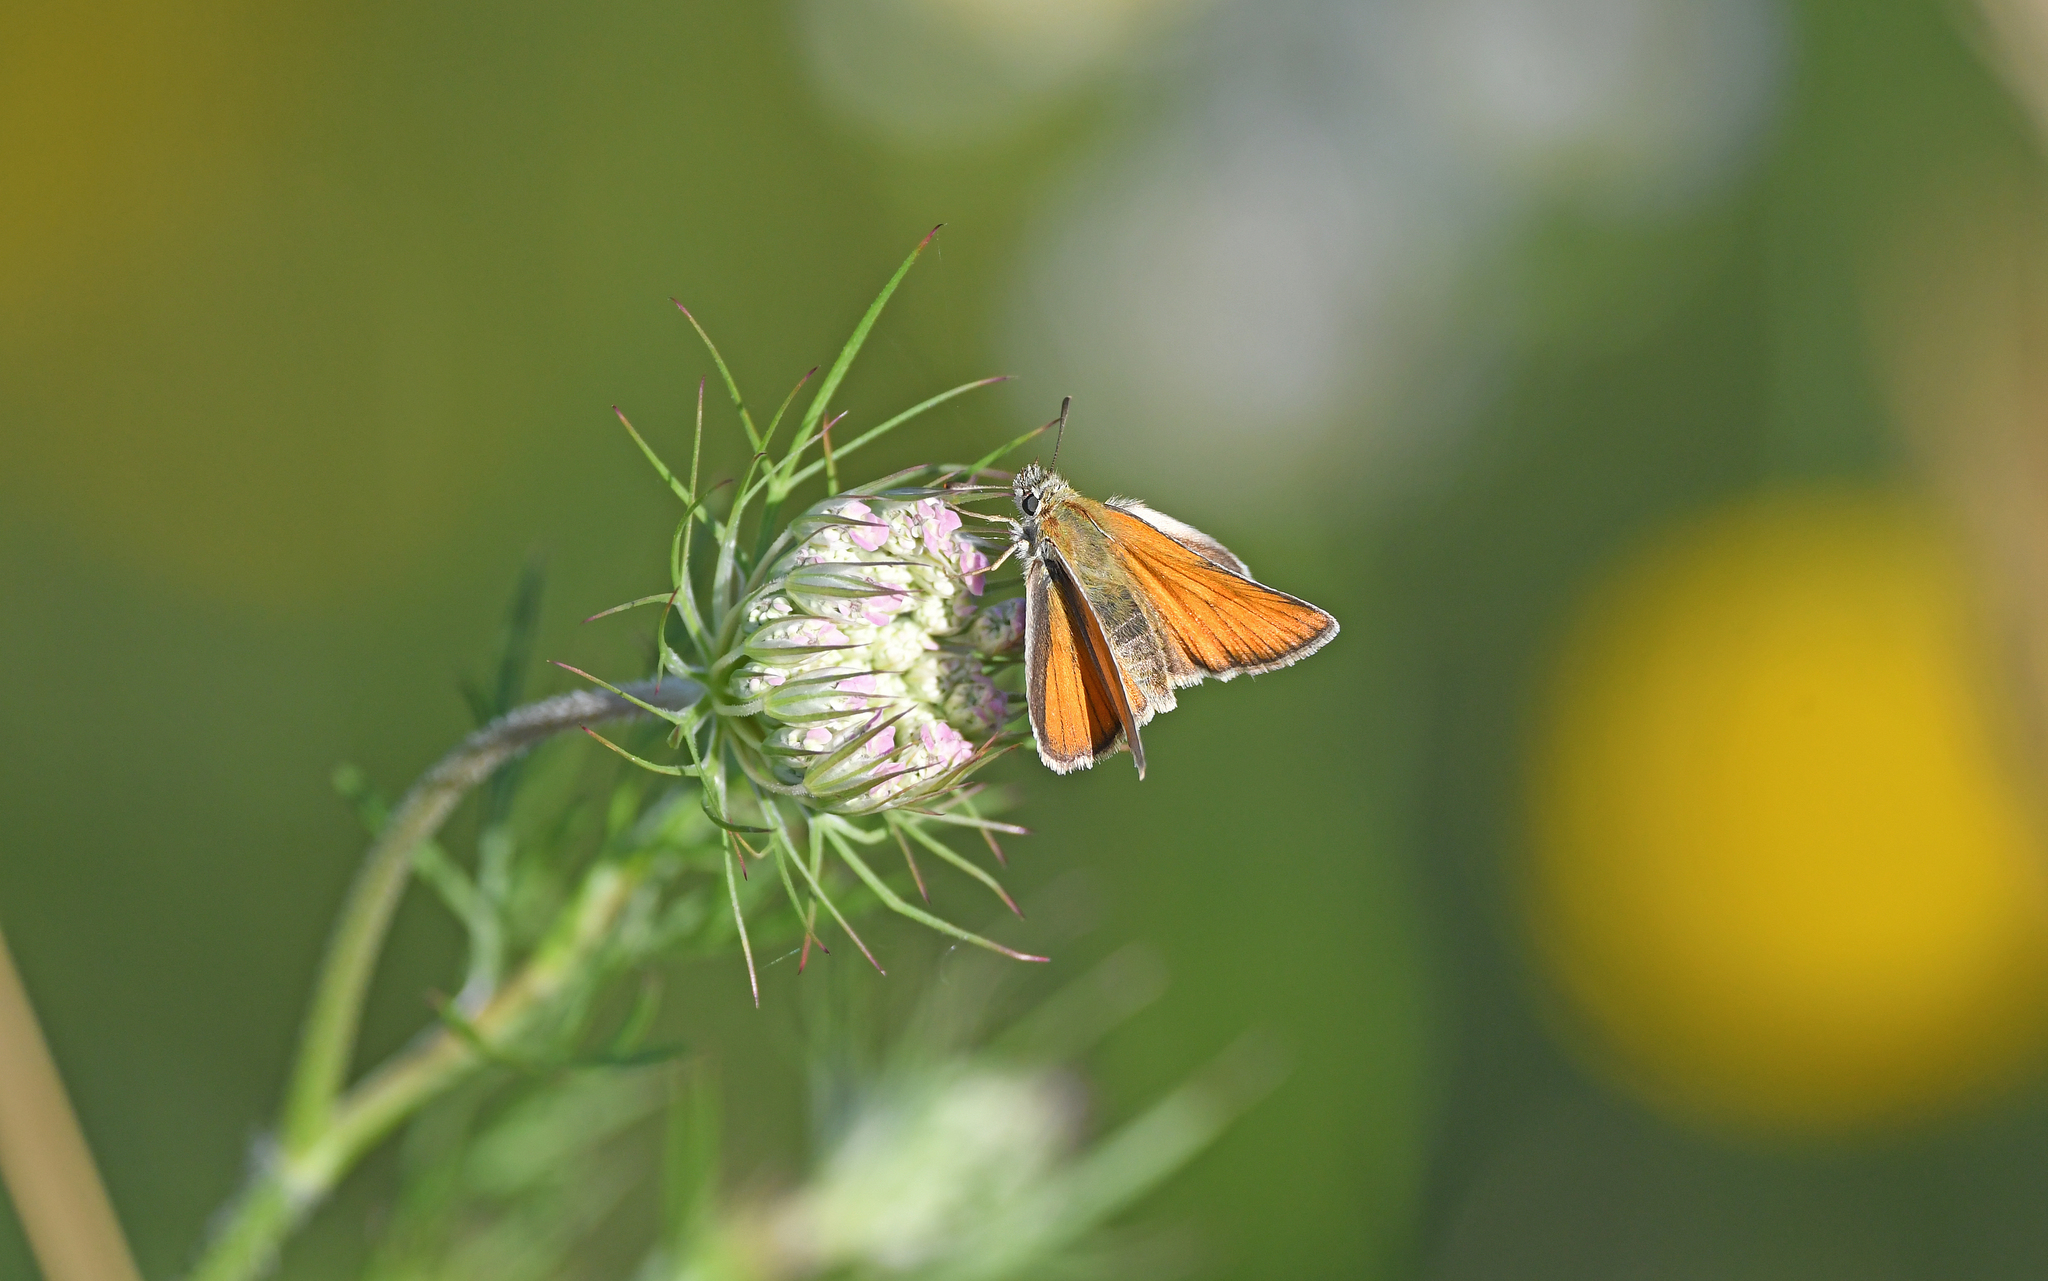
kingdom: Animalia
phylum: Arthropoda
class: Insecta
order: Lepidoptera
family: Hesperiidae
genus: Thymelicus
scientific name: Thymelicus sylvestris
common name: Small skipper
